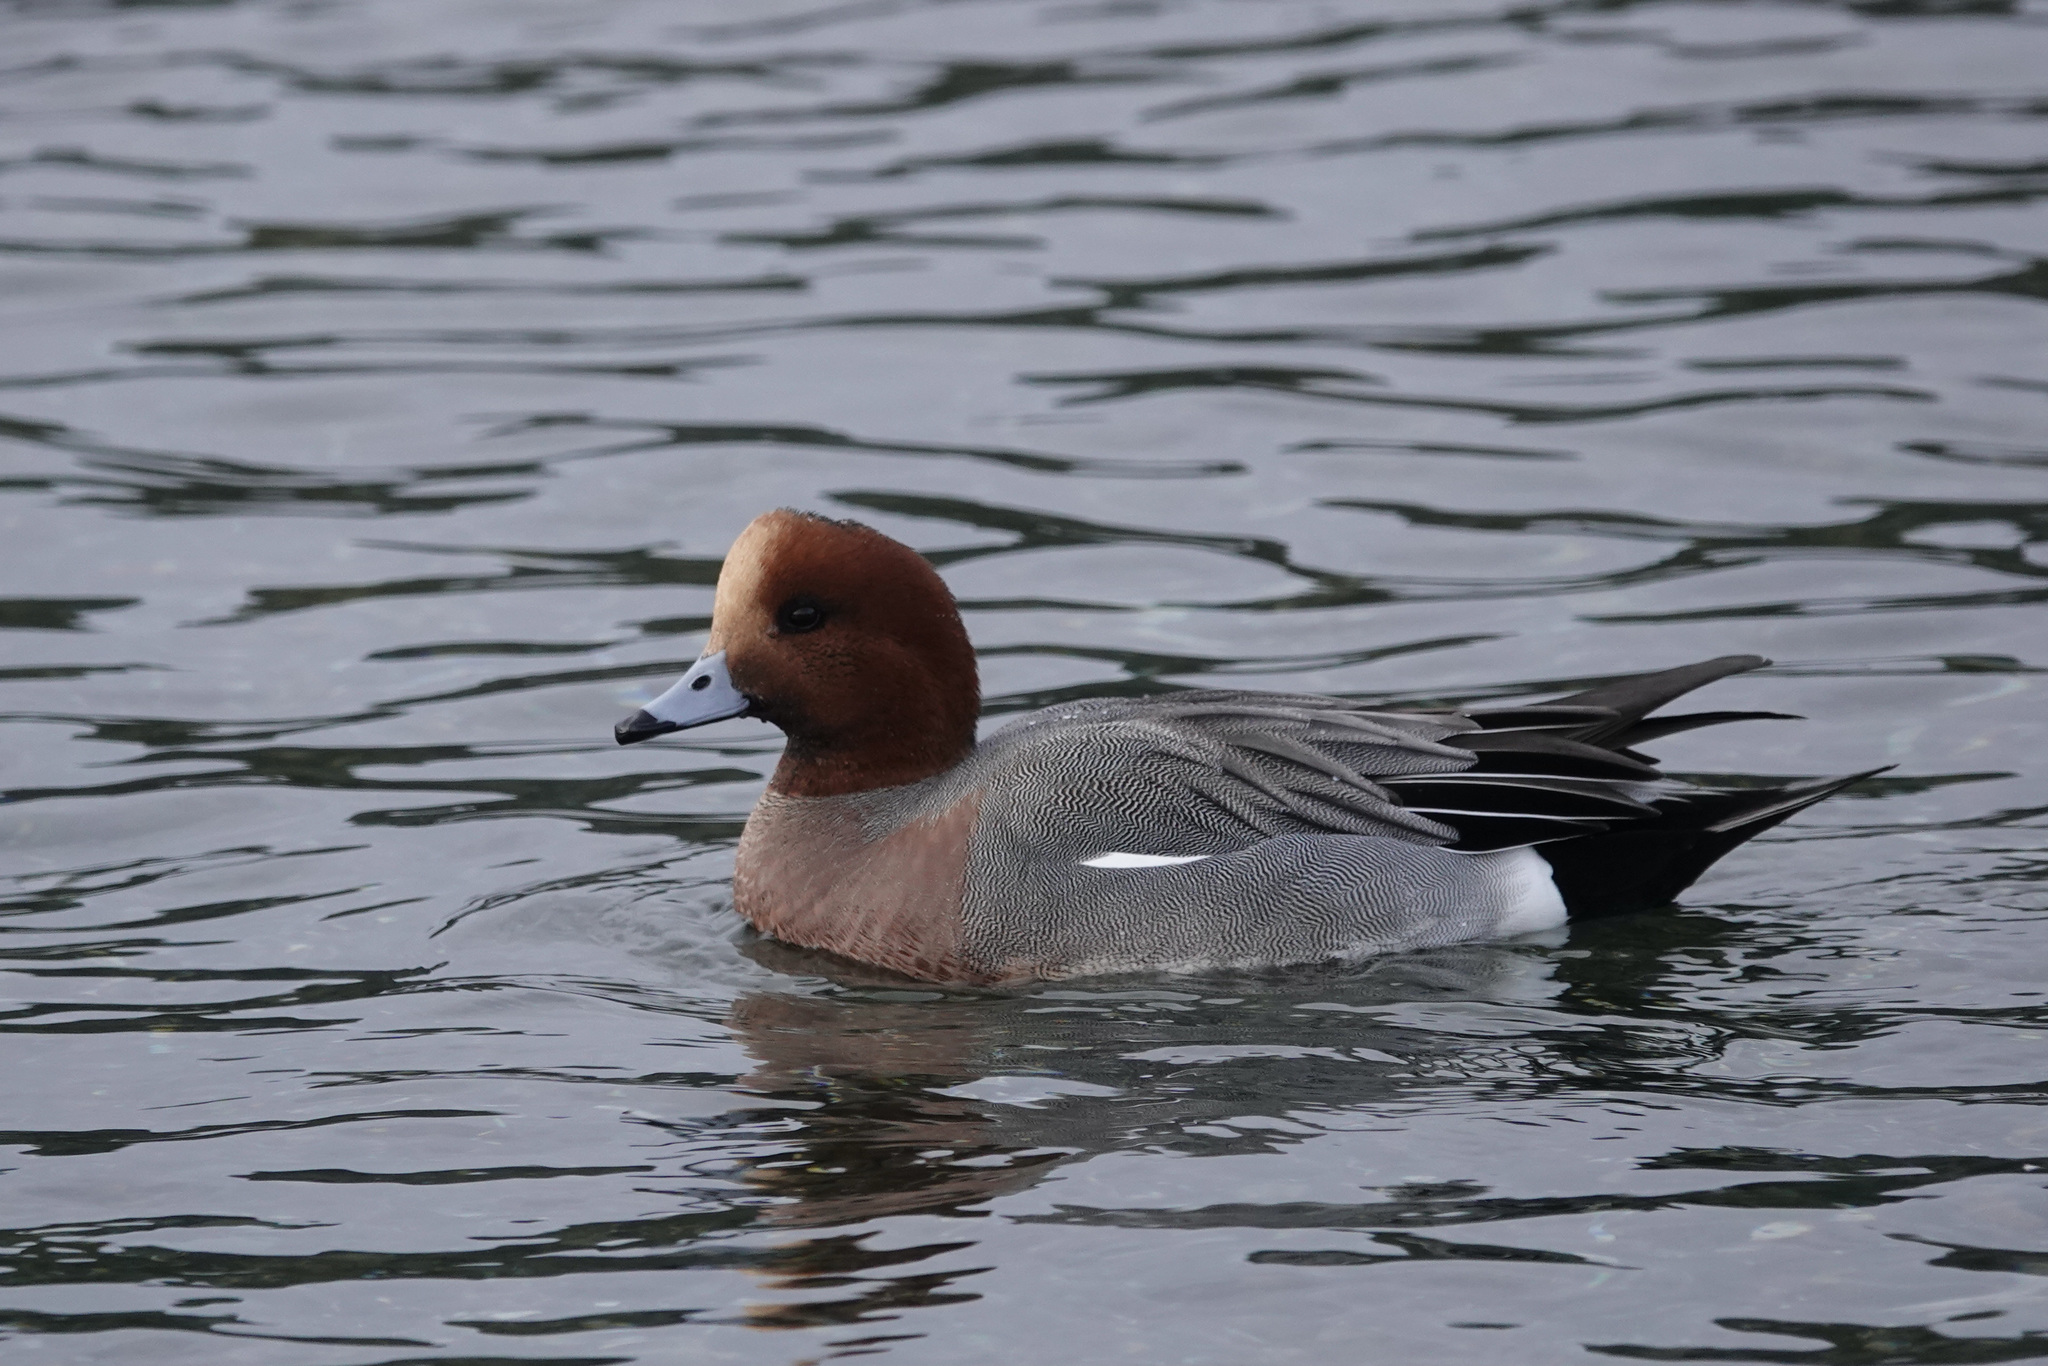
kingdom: Animalia
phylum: Chordata
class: Aves
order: Anseriformes
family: Anatidae
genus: Mareca
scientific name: Mareca penelope
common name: Eurasian wigeon
